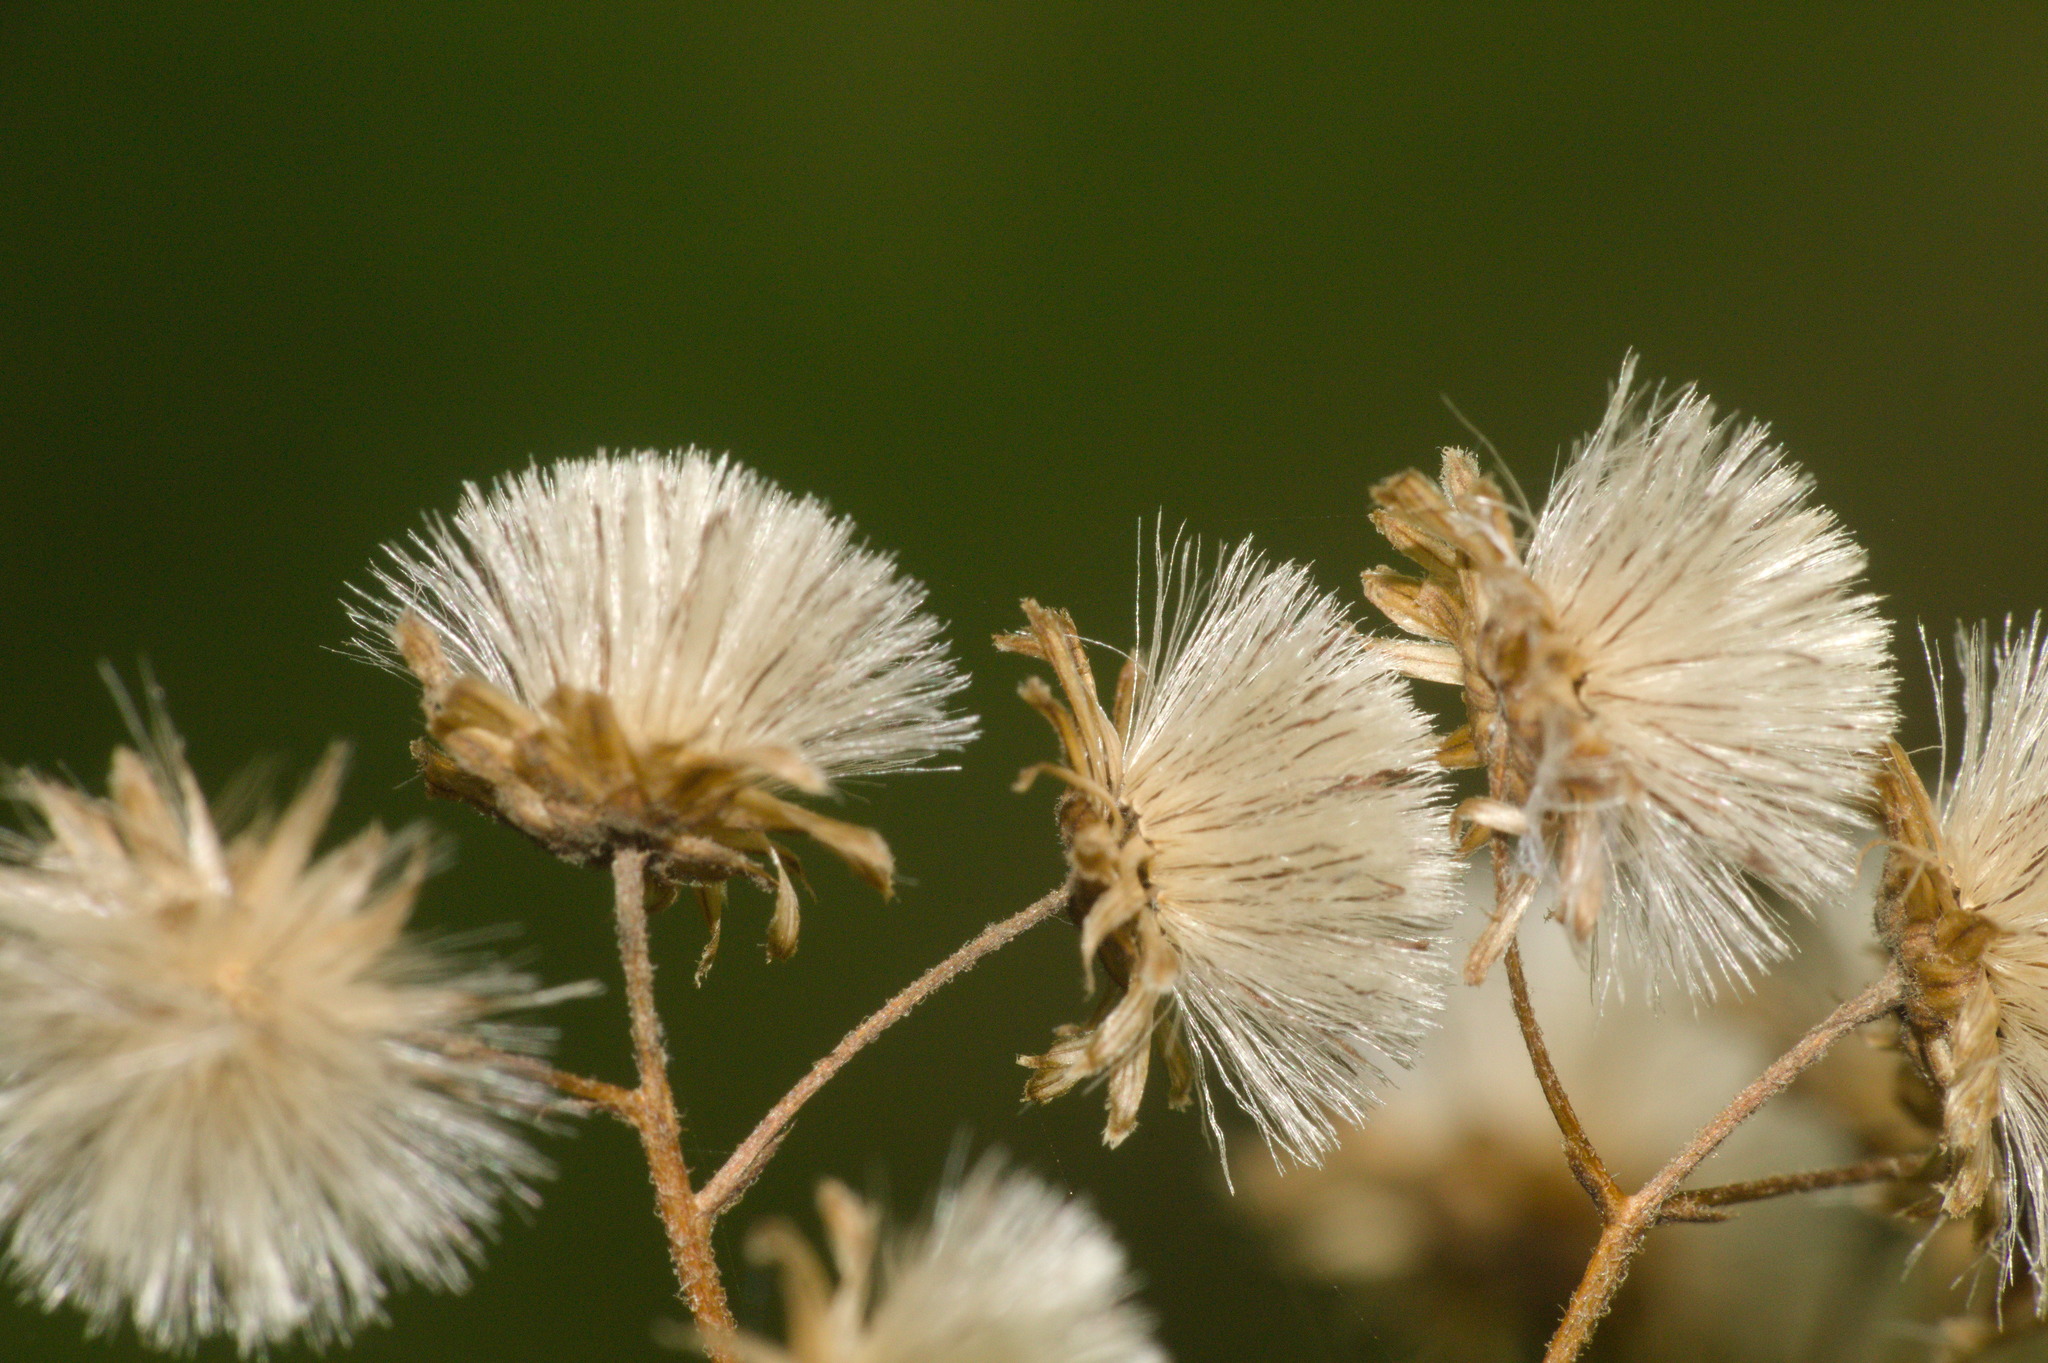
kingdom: Plantae
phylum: Tracheophyta
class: Magnoliopsida
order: Asterales
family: Asteraceae
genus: Baccharis
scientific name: Baccharis anomala
